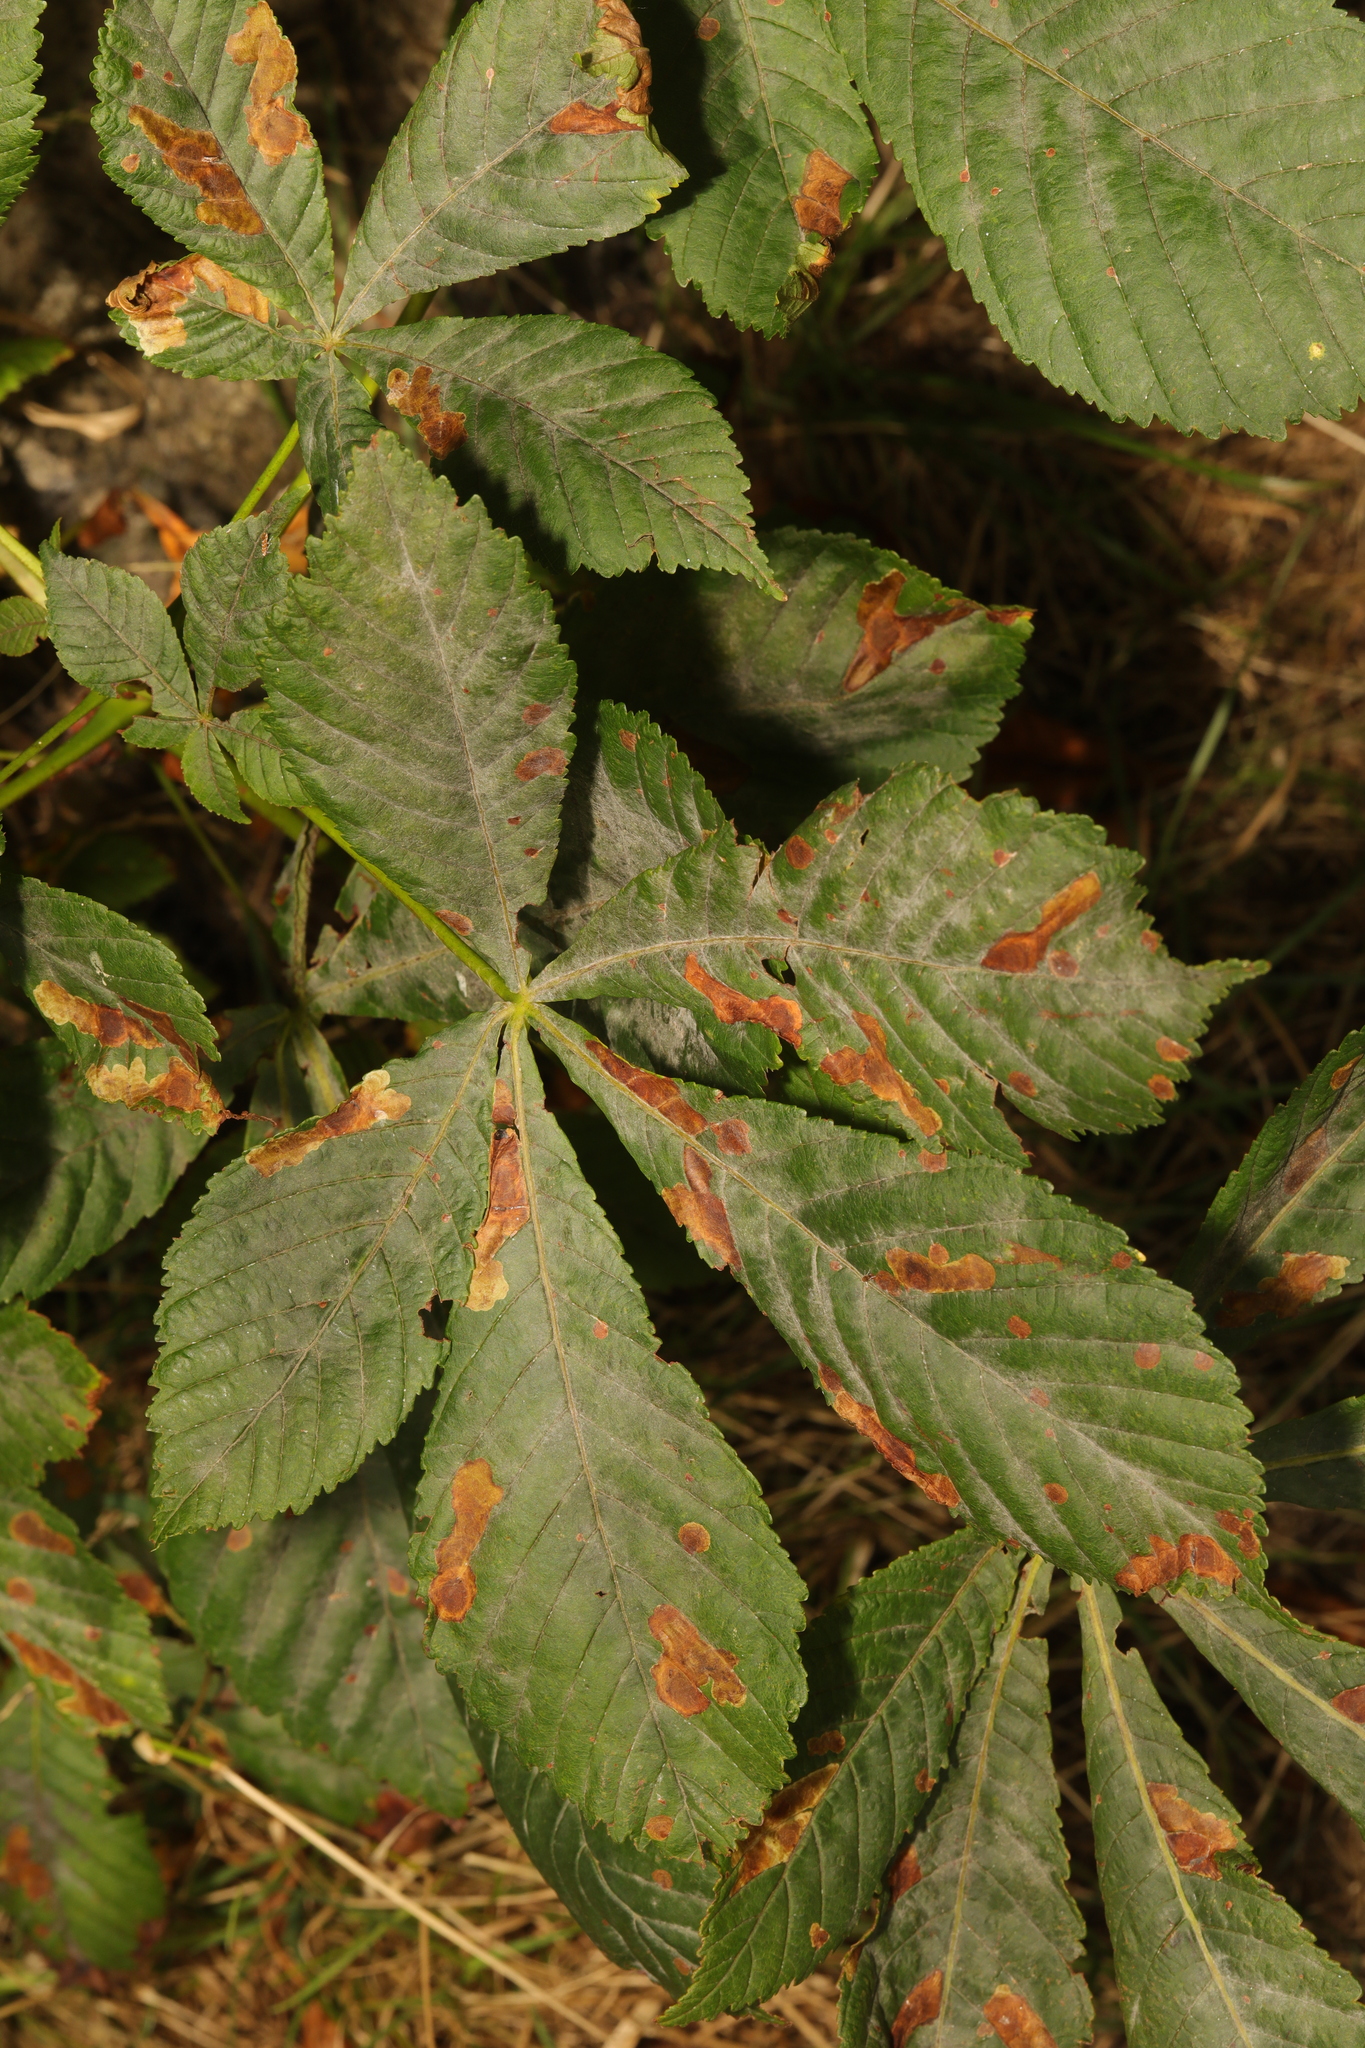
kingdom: Plantae
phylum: Tracheophyta
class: Magnoliopsida
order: Sapindales
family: Sapindaceae
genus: Aesculus
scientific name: Aesculus hippocastanum
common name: Horse-chestnut
